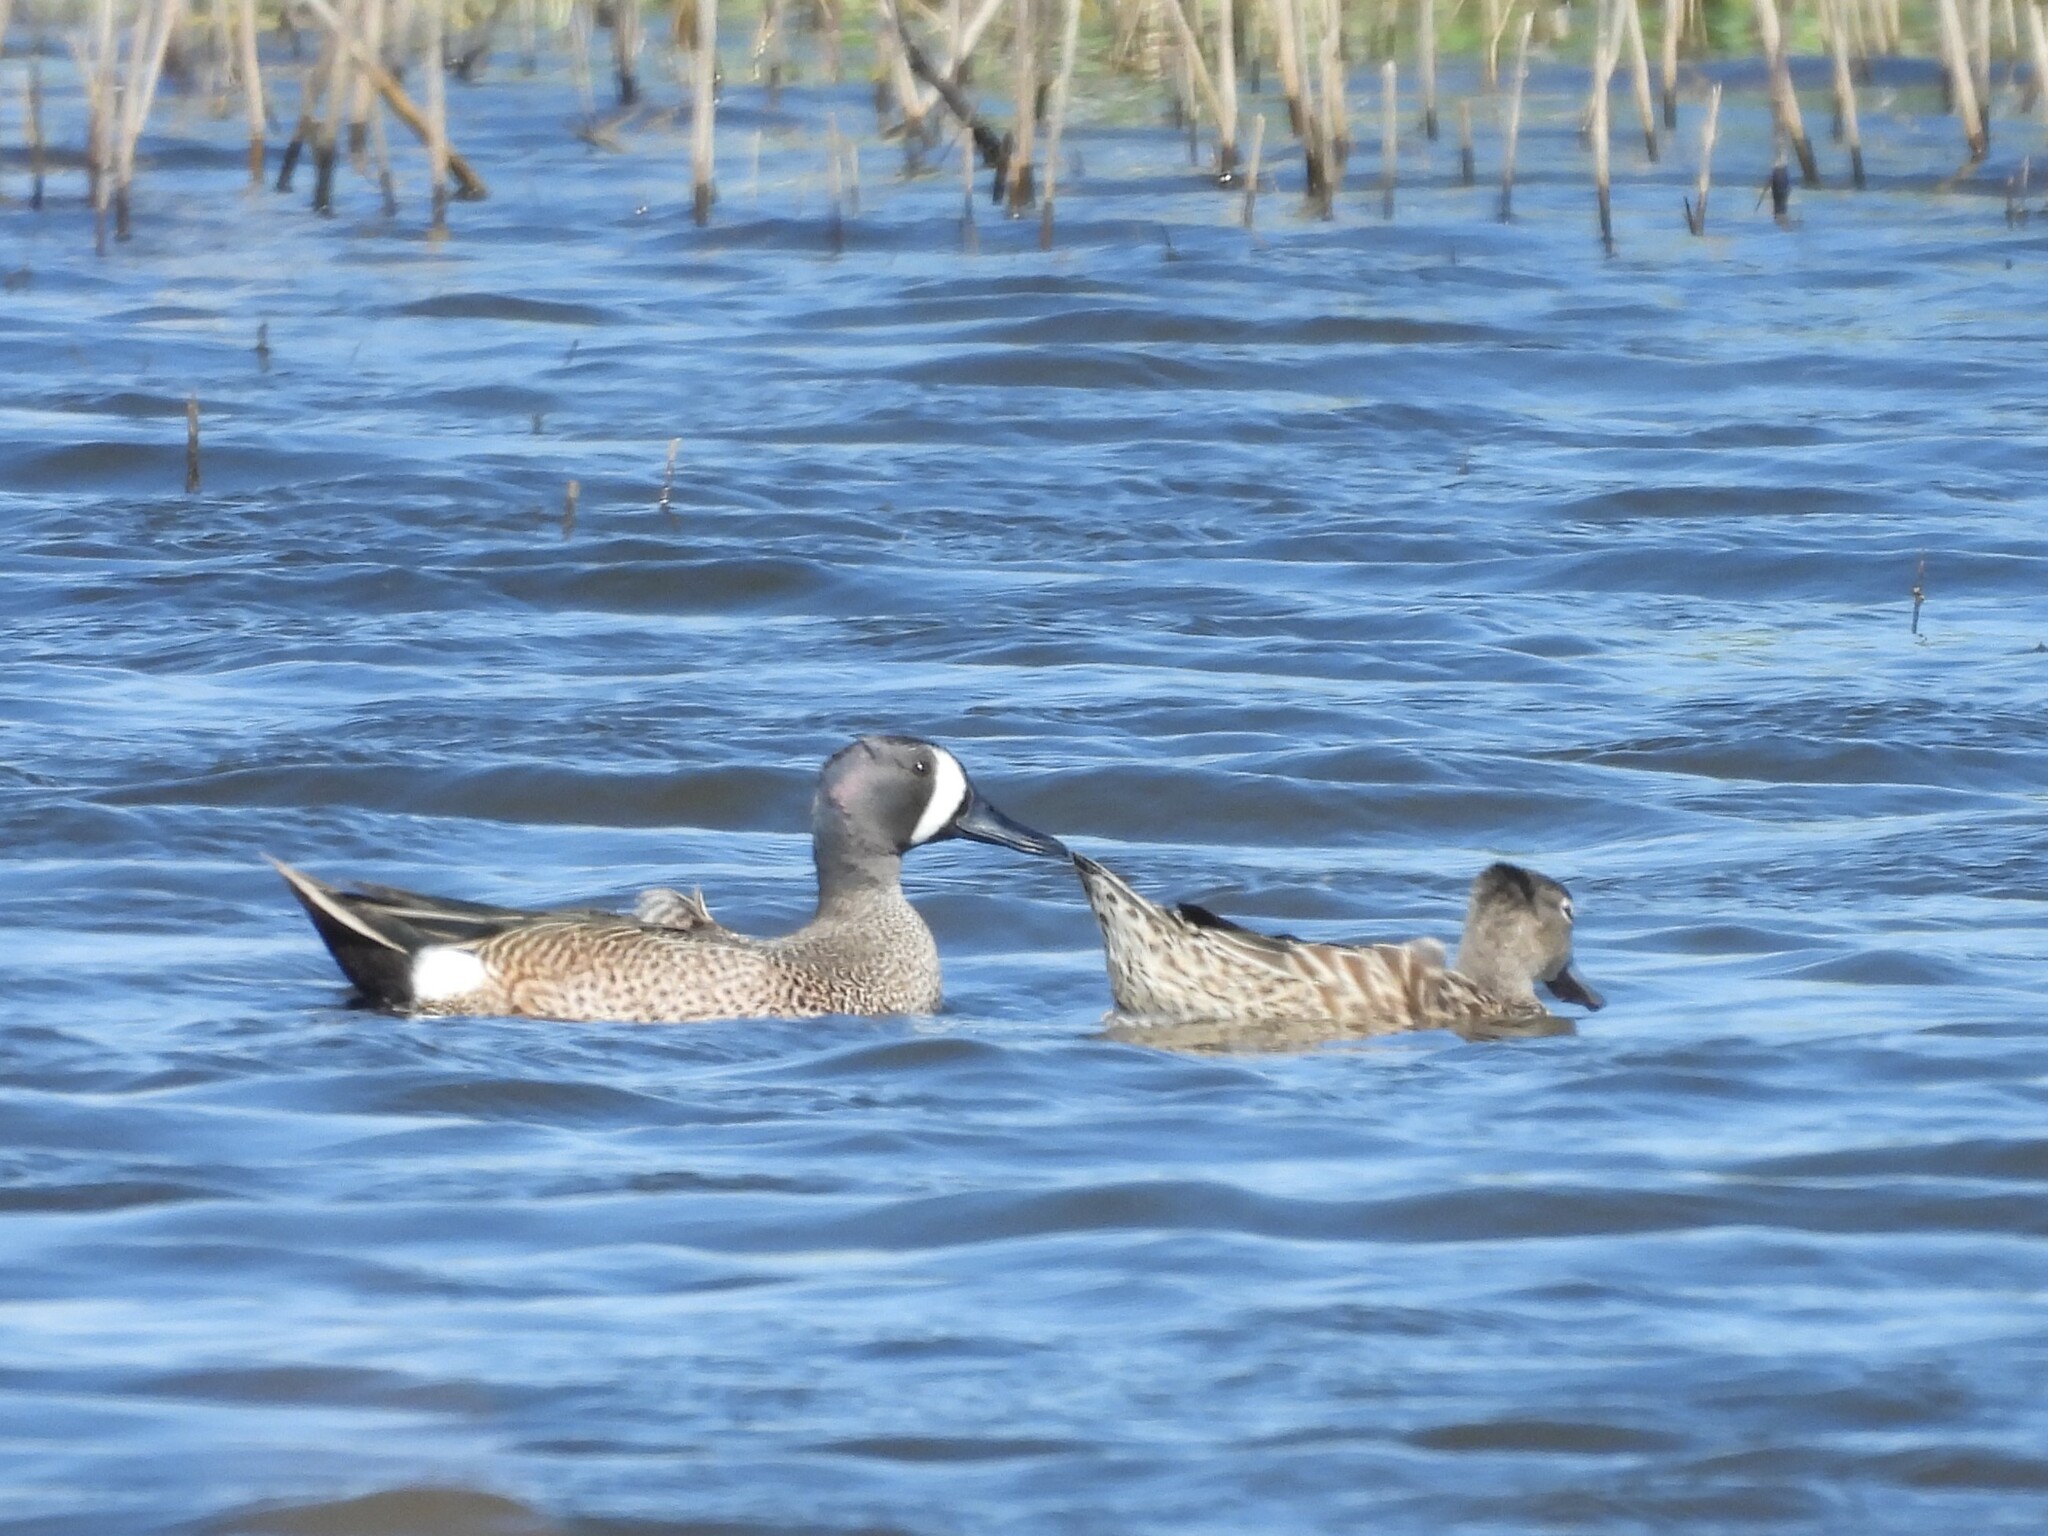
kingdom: Animalia
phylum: Chordata
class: Aves
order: Anseriformes
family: Anatidae
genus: Spatula
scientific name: Spatula discors
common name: Blue-winged teal
